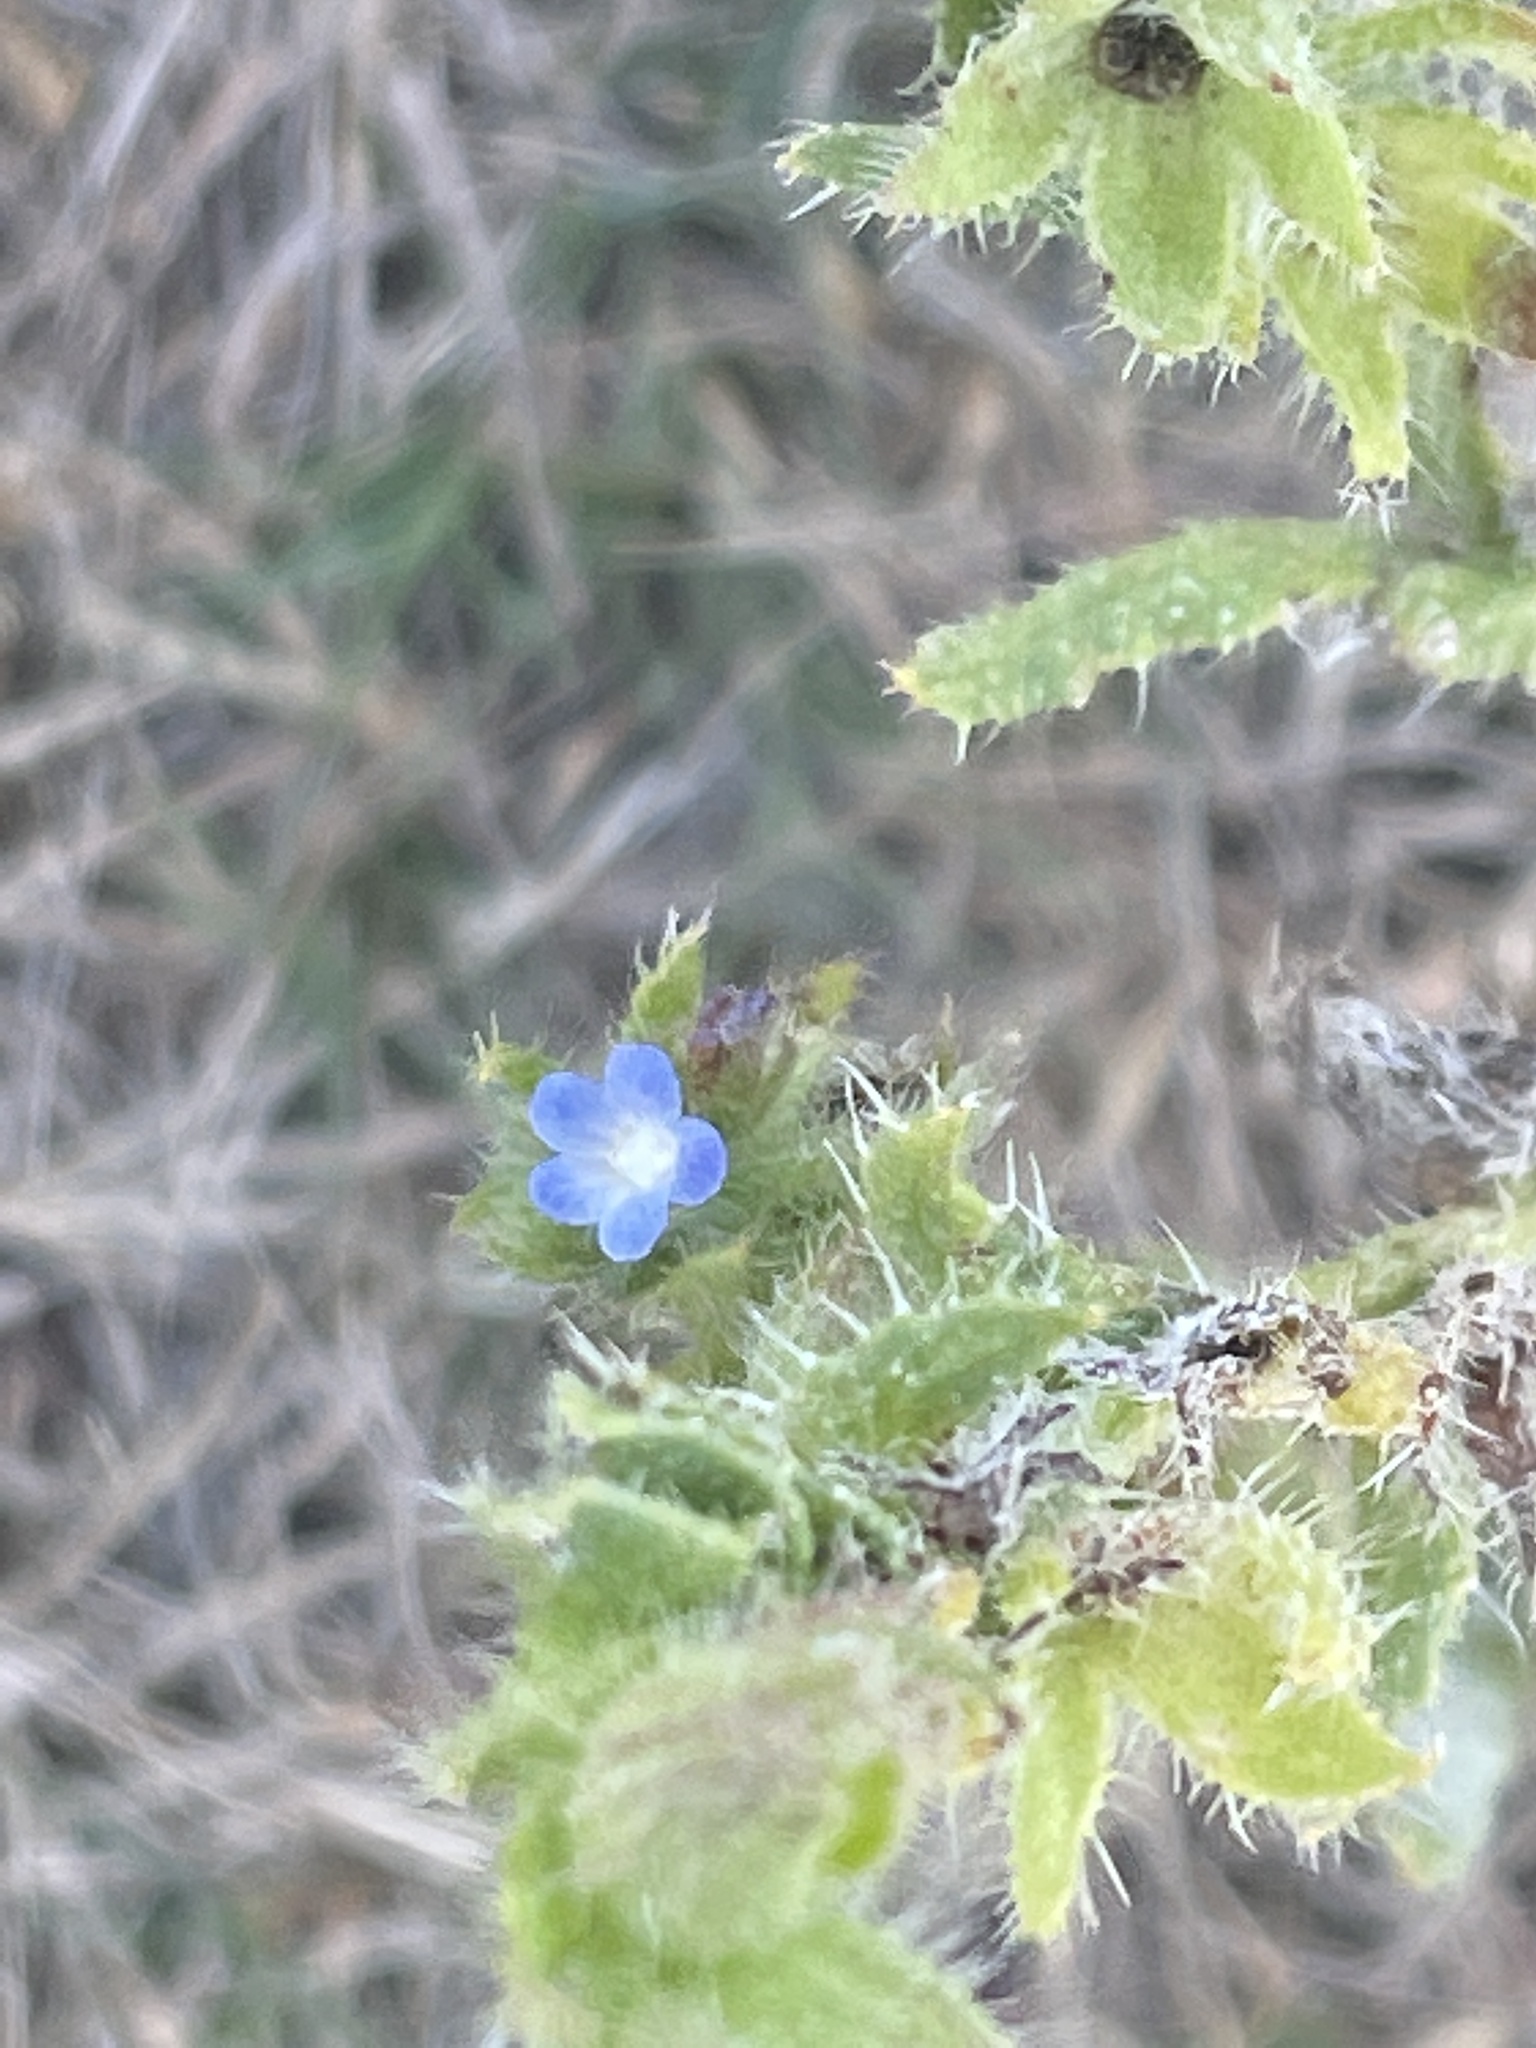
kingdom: Plantae
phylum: Tracheophyta
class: Magnoliopsida
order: Boraginales
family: Boraginaceae
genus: Lycopsis
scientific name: Lycopsis arvensis
